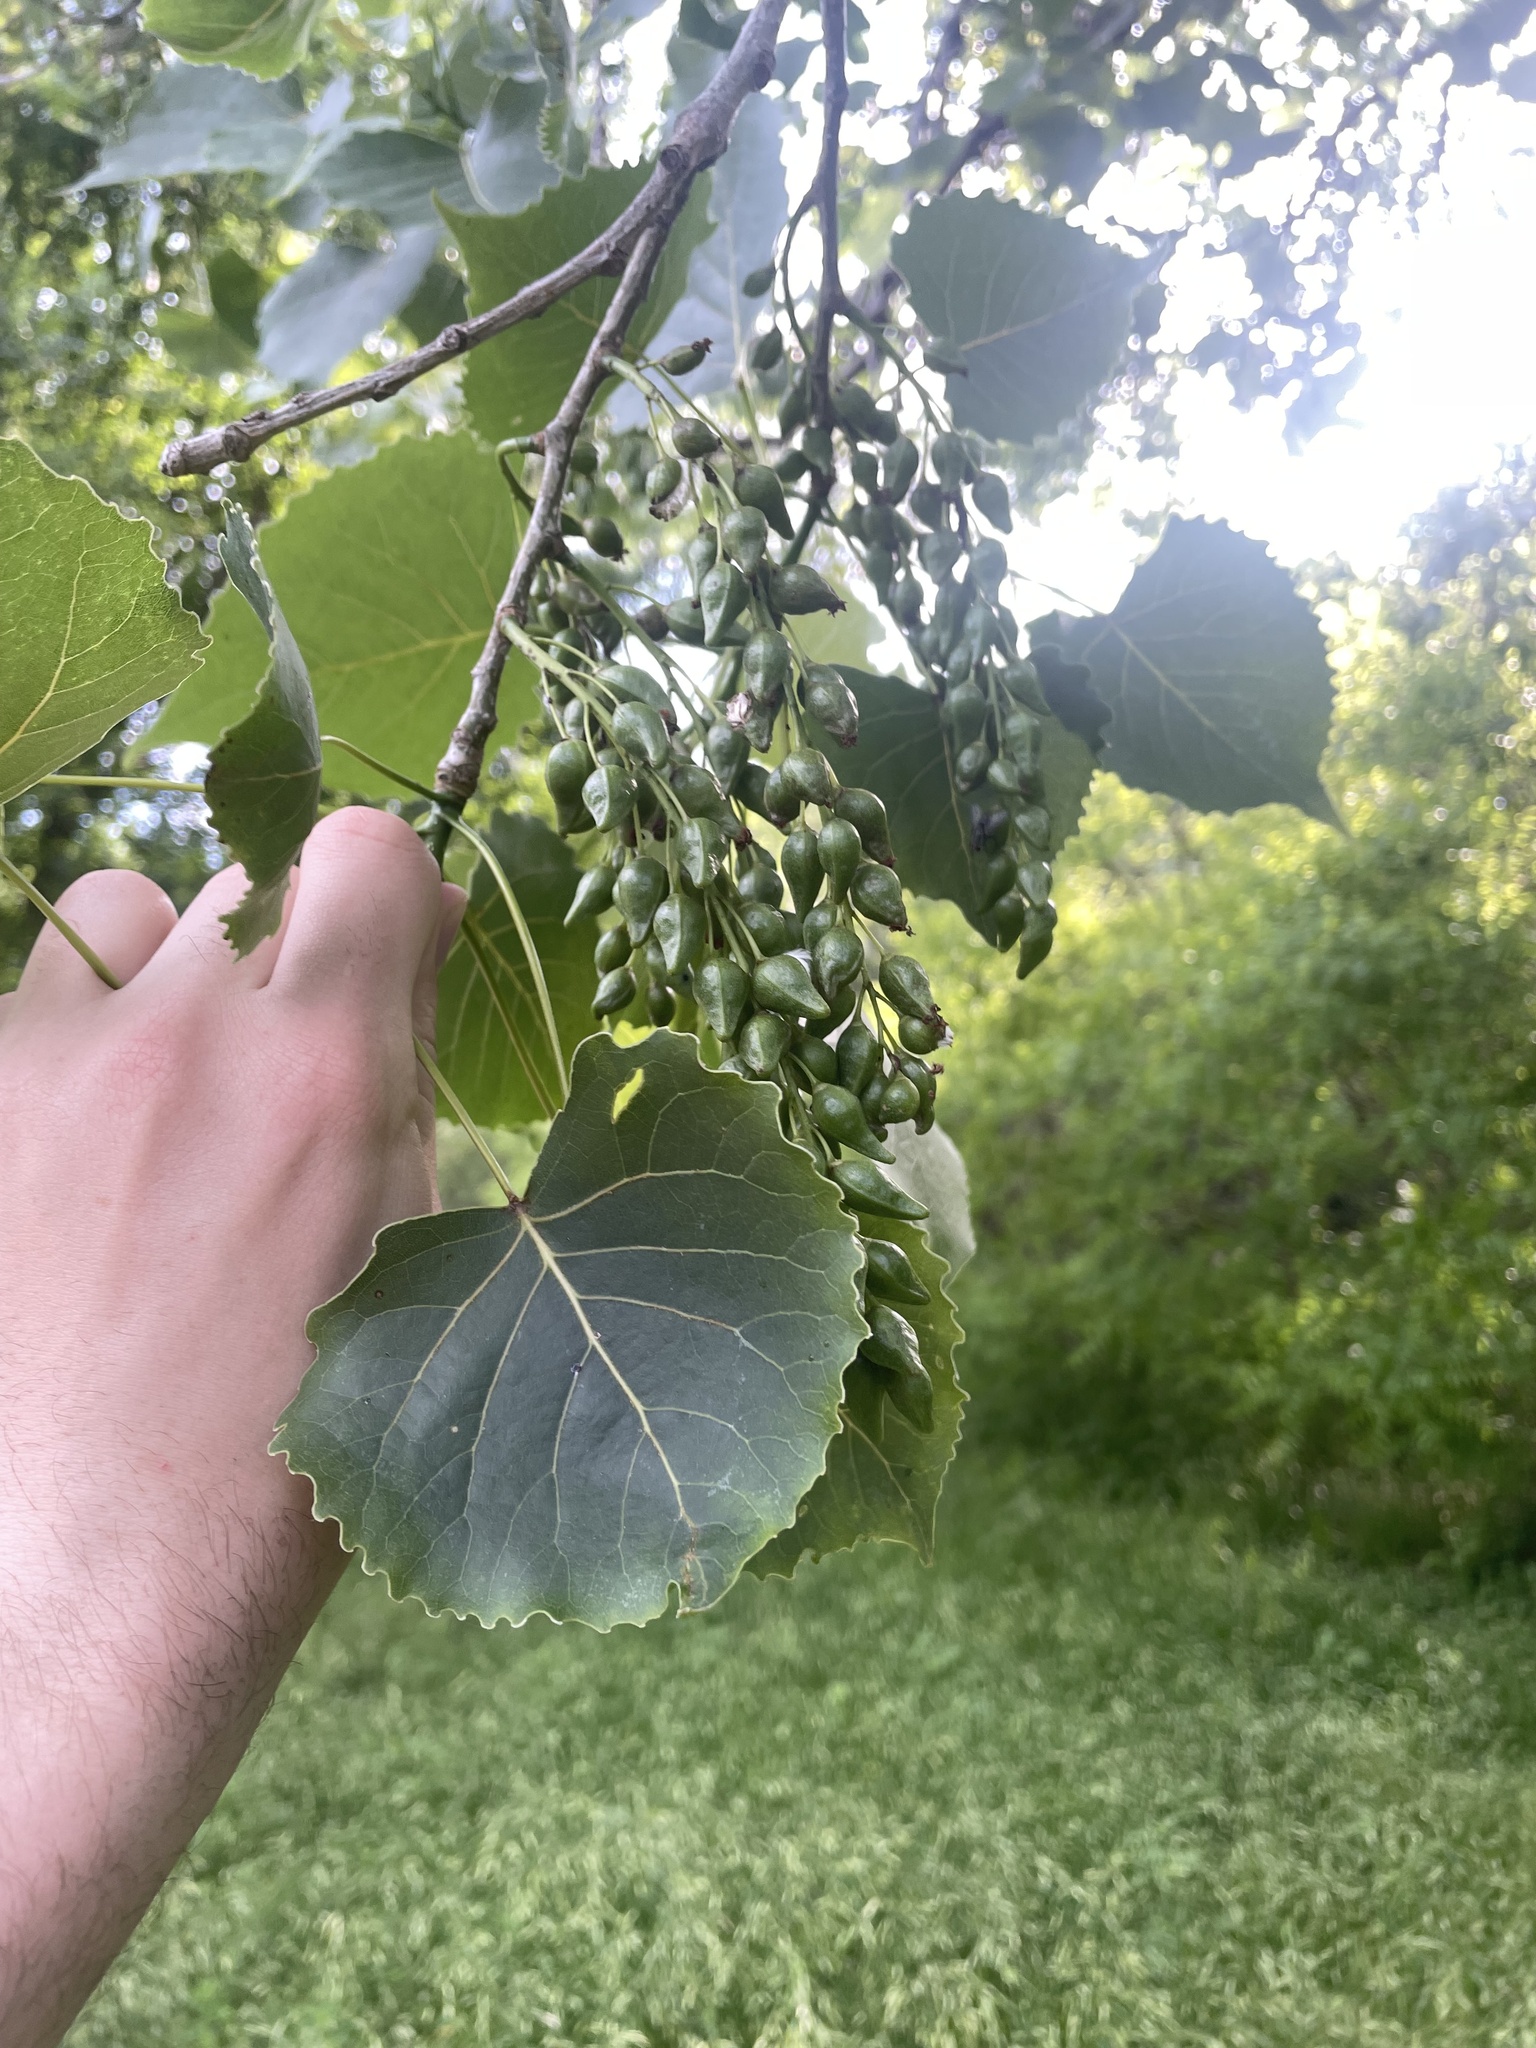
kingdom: Plantae
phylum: Tracheophyta
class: Magnoliopsida
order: Malpighiales
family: Salicaceae
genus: Populus
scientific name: Populus deltoides
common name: Eastern cottonwood
